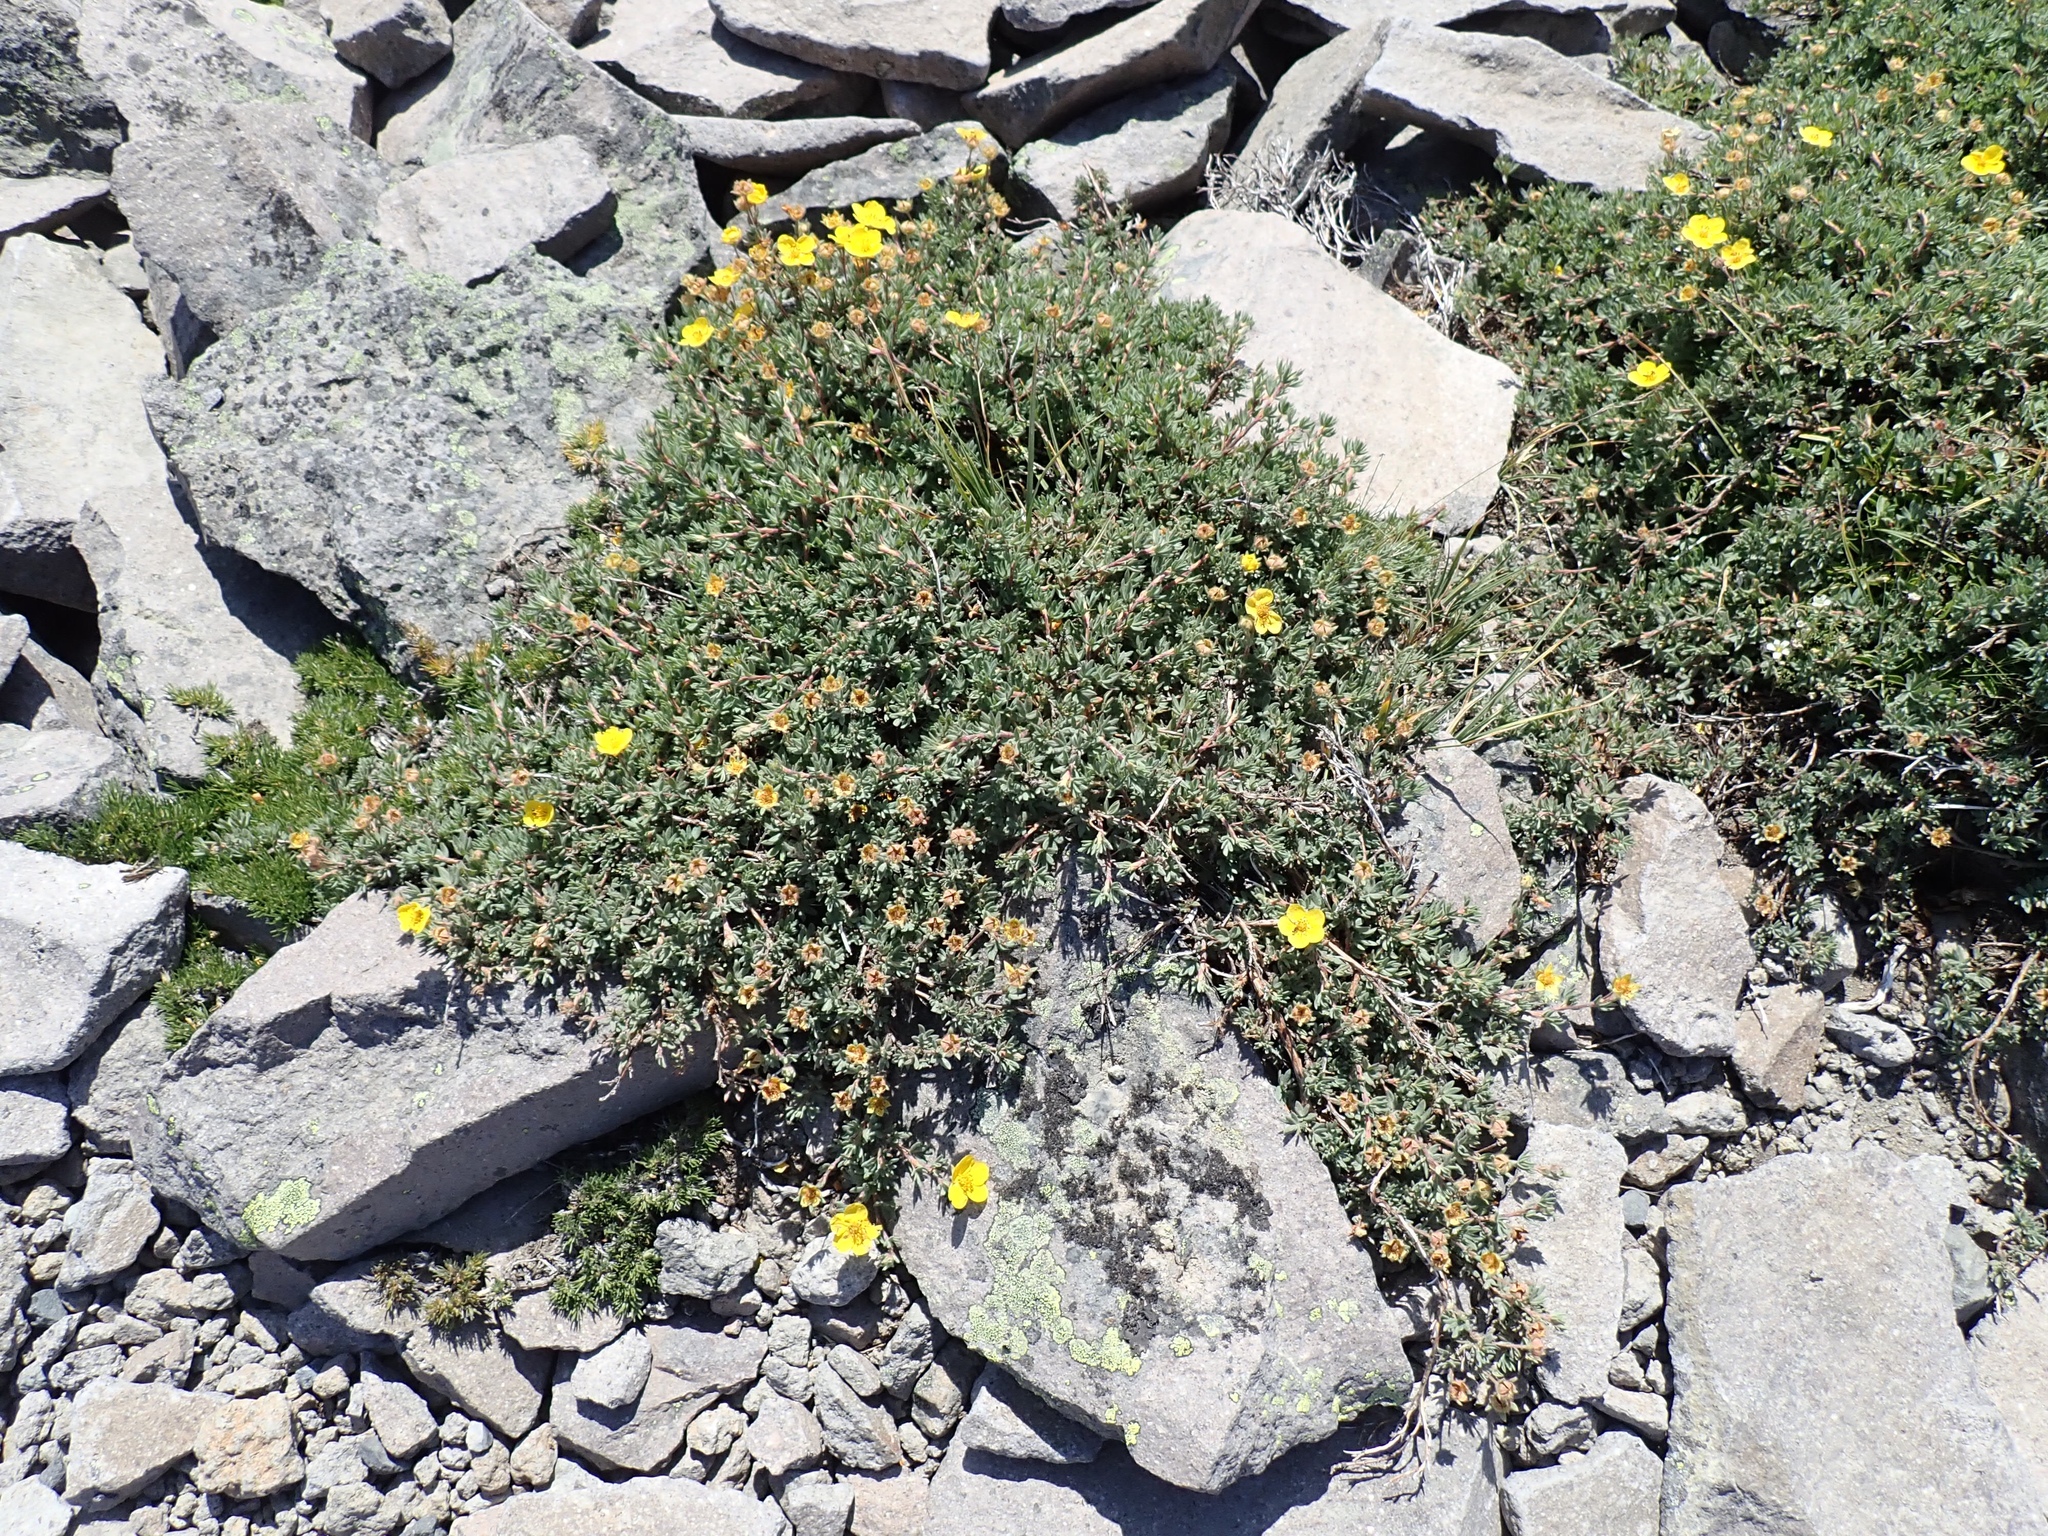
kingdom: Plantae
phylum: Tracheophyta
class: Magnoliopsida
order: Rosales
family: Rosaceae
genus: Dasiphora
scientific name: Dasiphora fruticosa
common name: Shrubby cinquefoil
